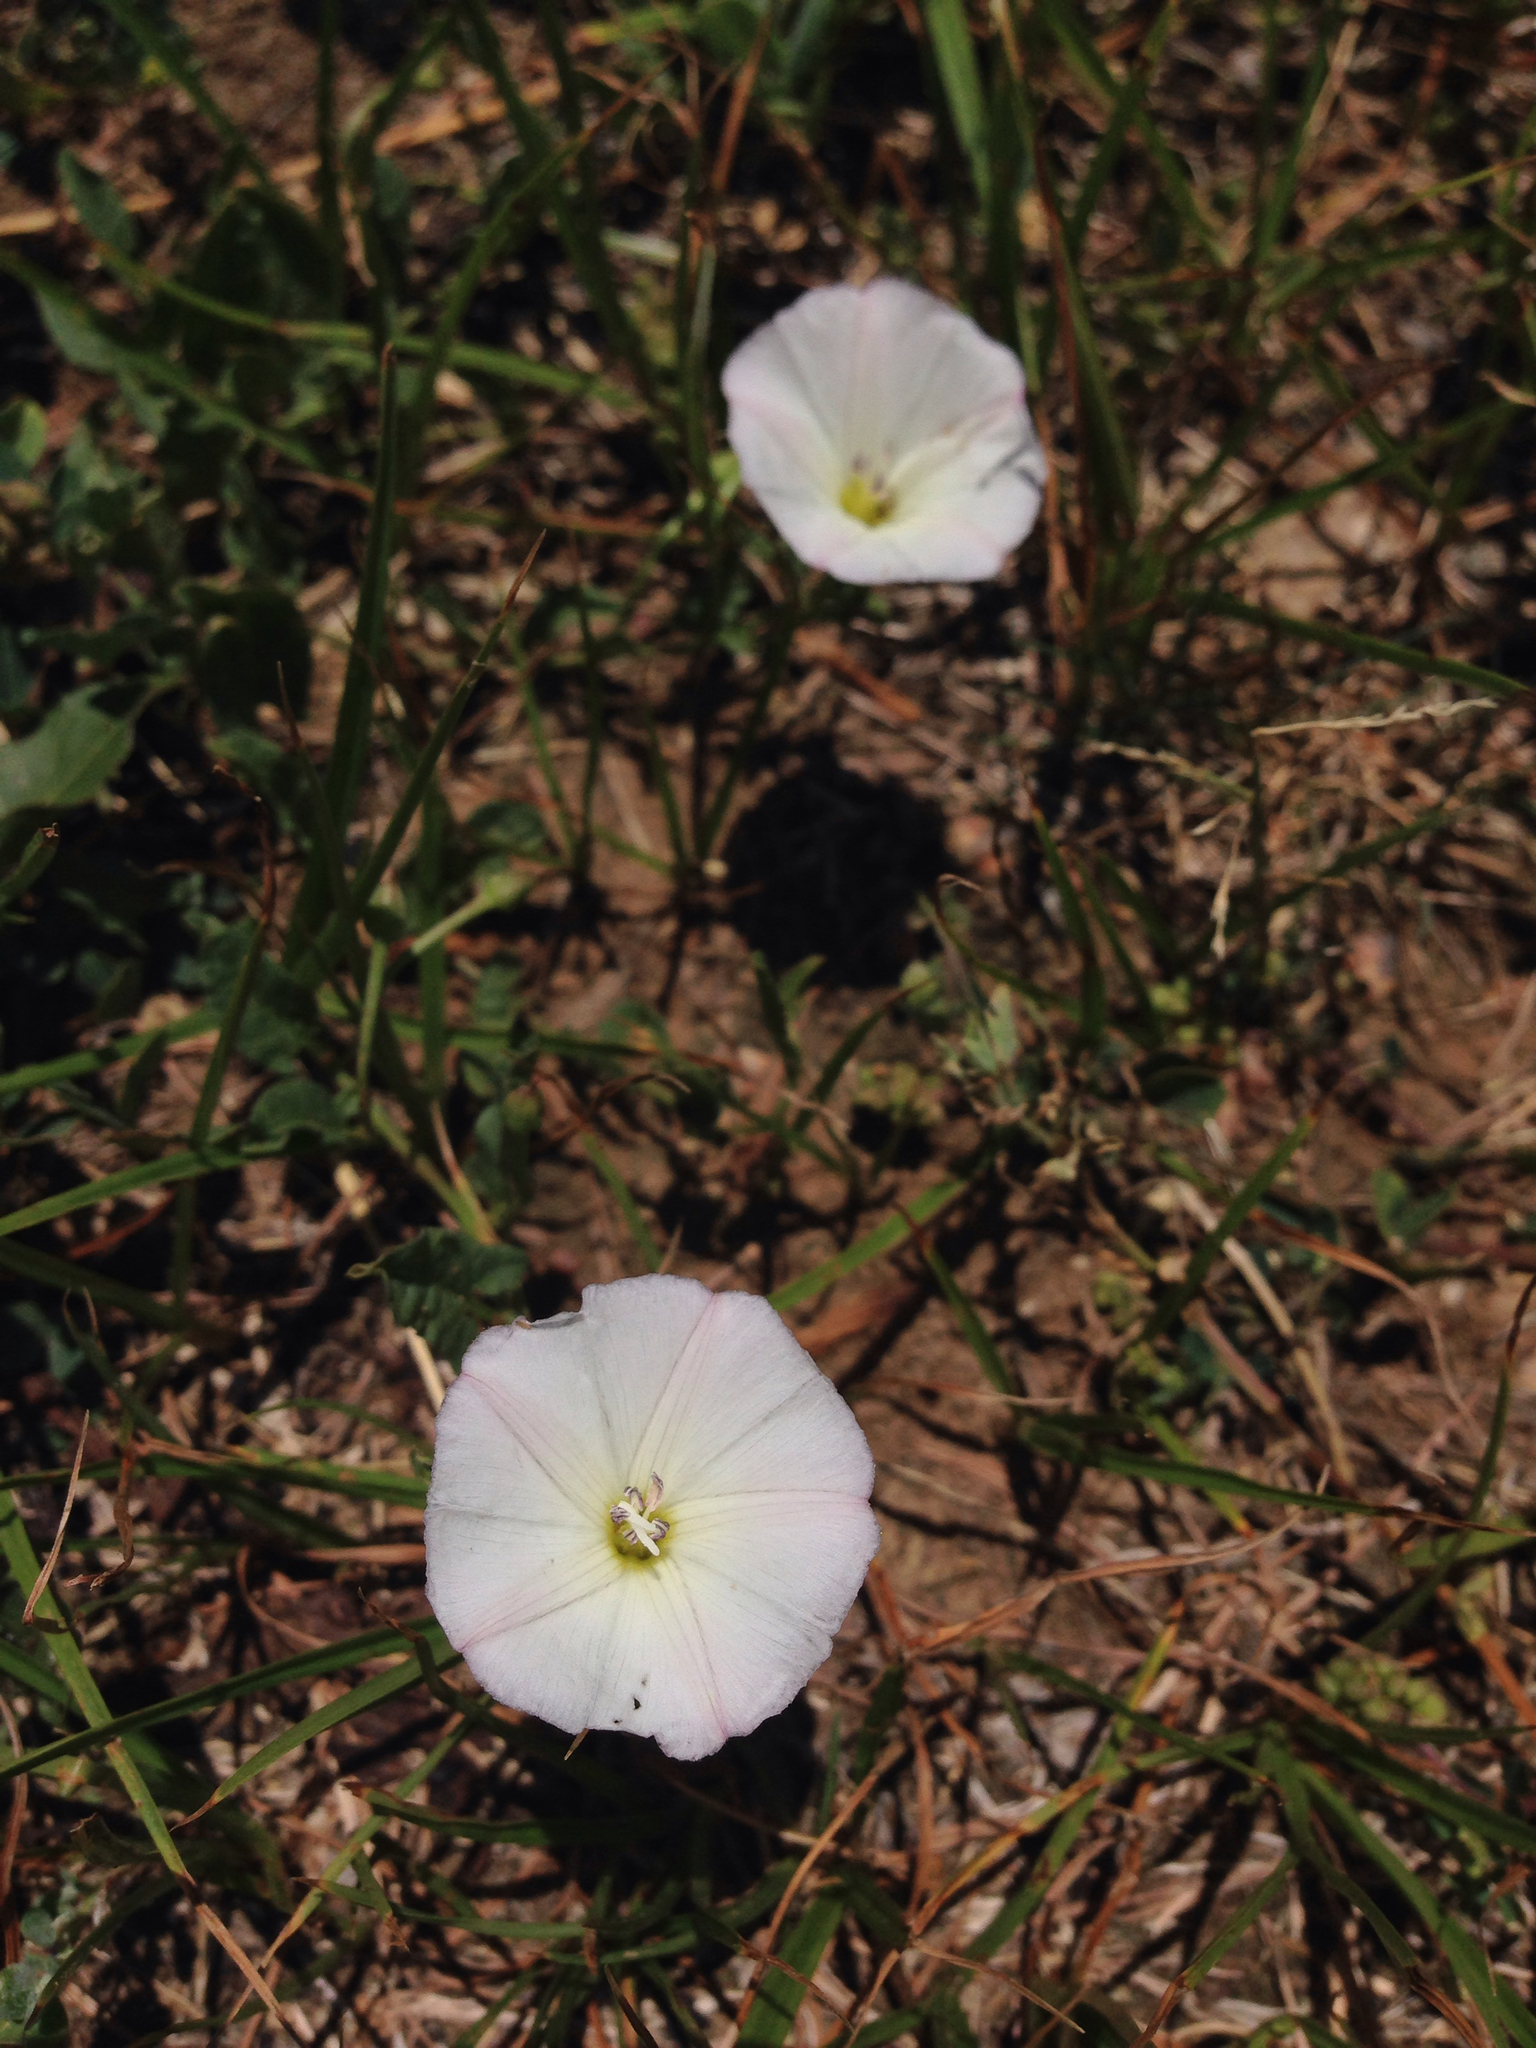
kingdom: Plantae
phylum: Tracheophyta
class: Magnoliopsida
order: Solanales
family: Convolvulaceae
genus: Convolvulus
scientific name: Convolvulus arvensis
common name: Field bindweed
